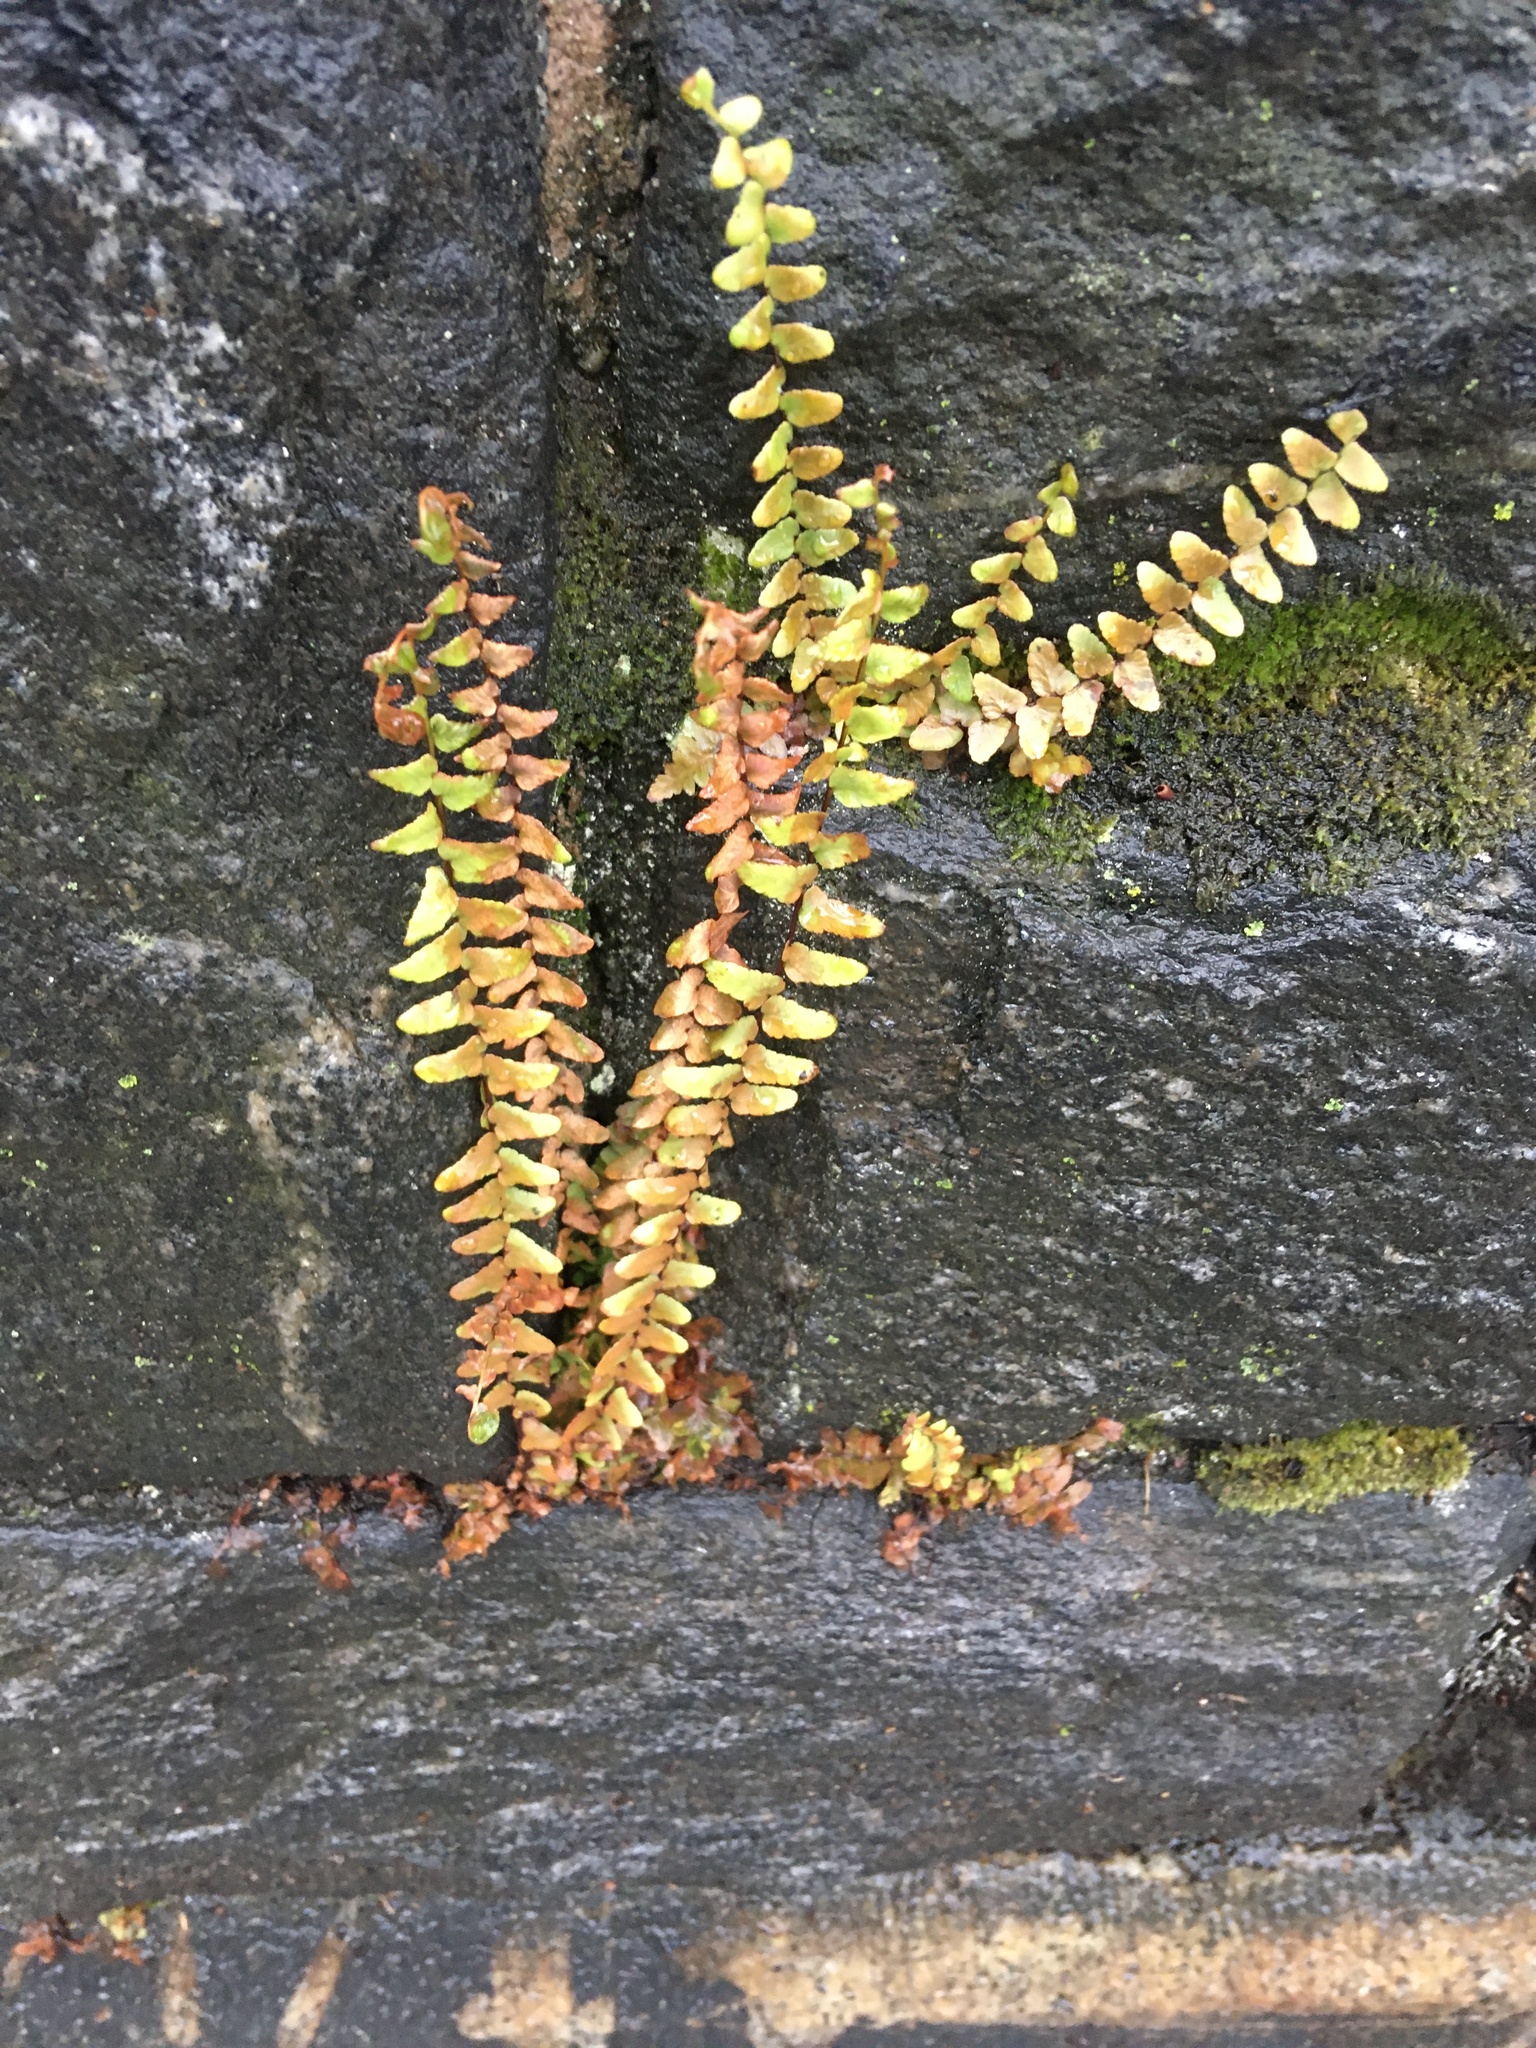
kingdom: Plantae
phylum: Tracheophyta
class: Polypodiopsida
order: Polypodiales
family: Aspleniaceae
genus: Asplenium
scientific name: Asplenium platyneuron
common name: Ebony spleenwort
